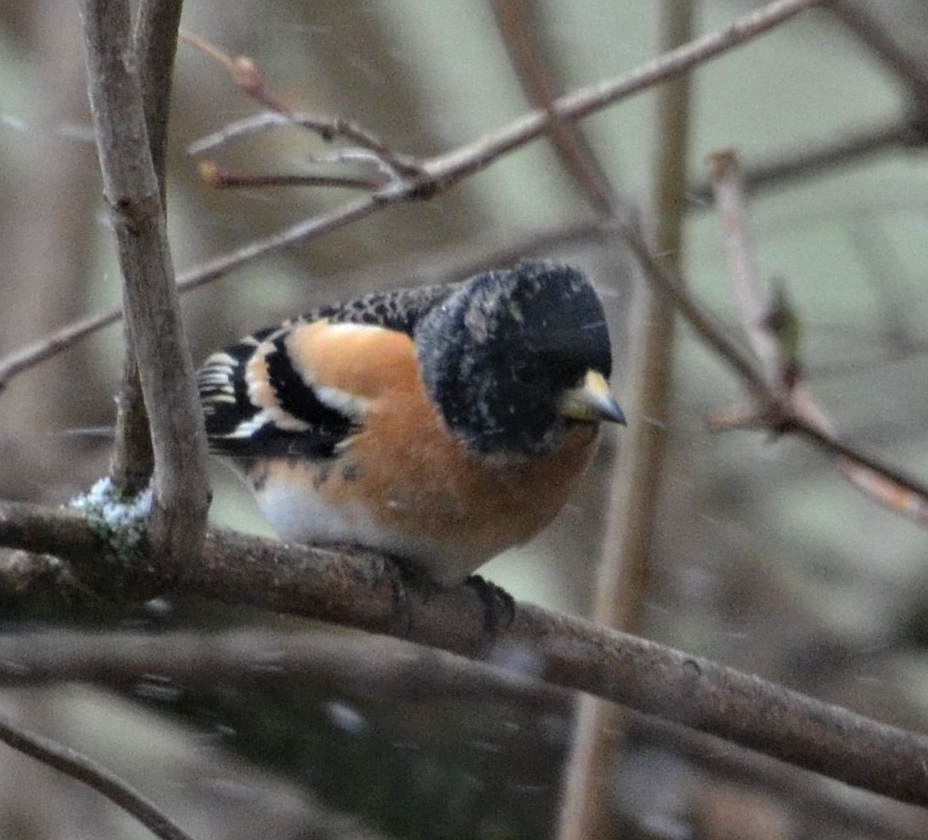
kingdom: Animalia
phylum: Chordata
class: Aves
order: Passeriformes
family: Fringillidae
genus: Fringilla
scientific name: Fringilla montifringilla
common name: Brambling
